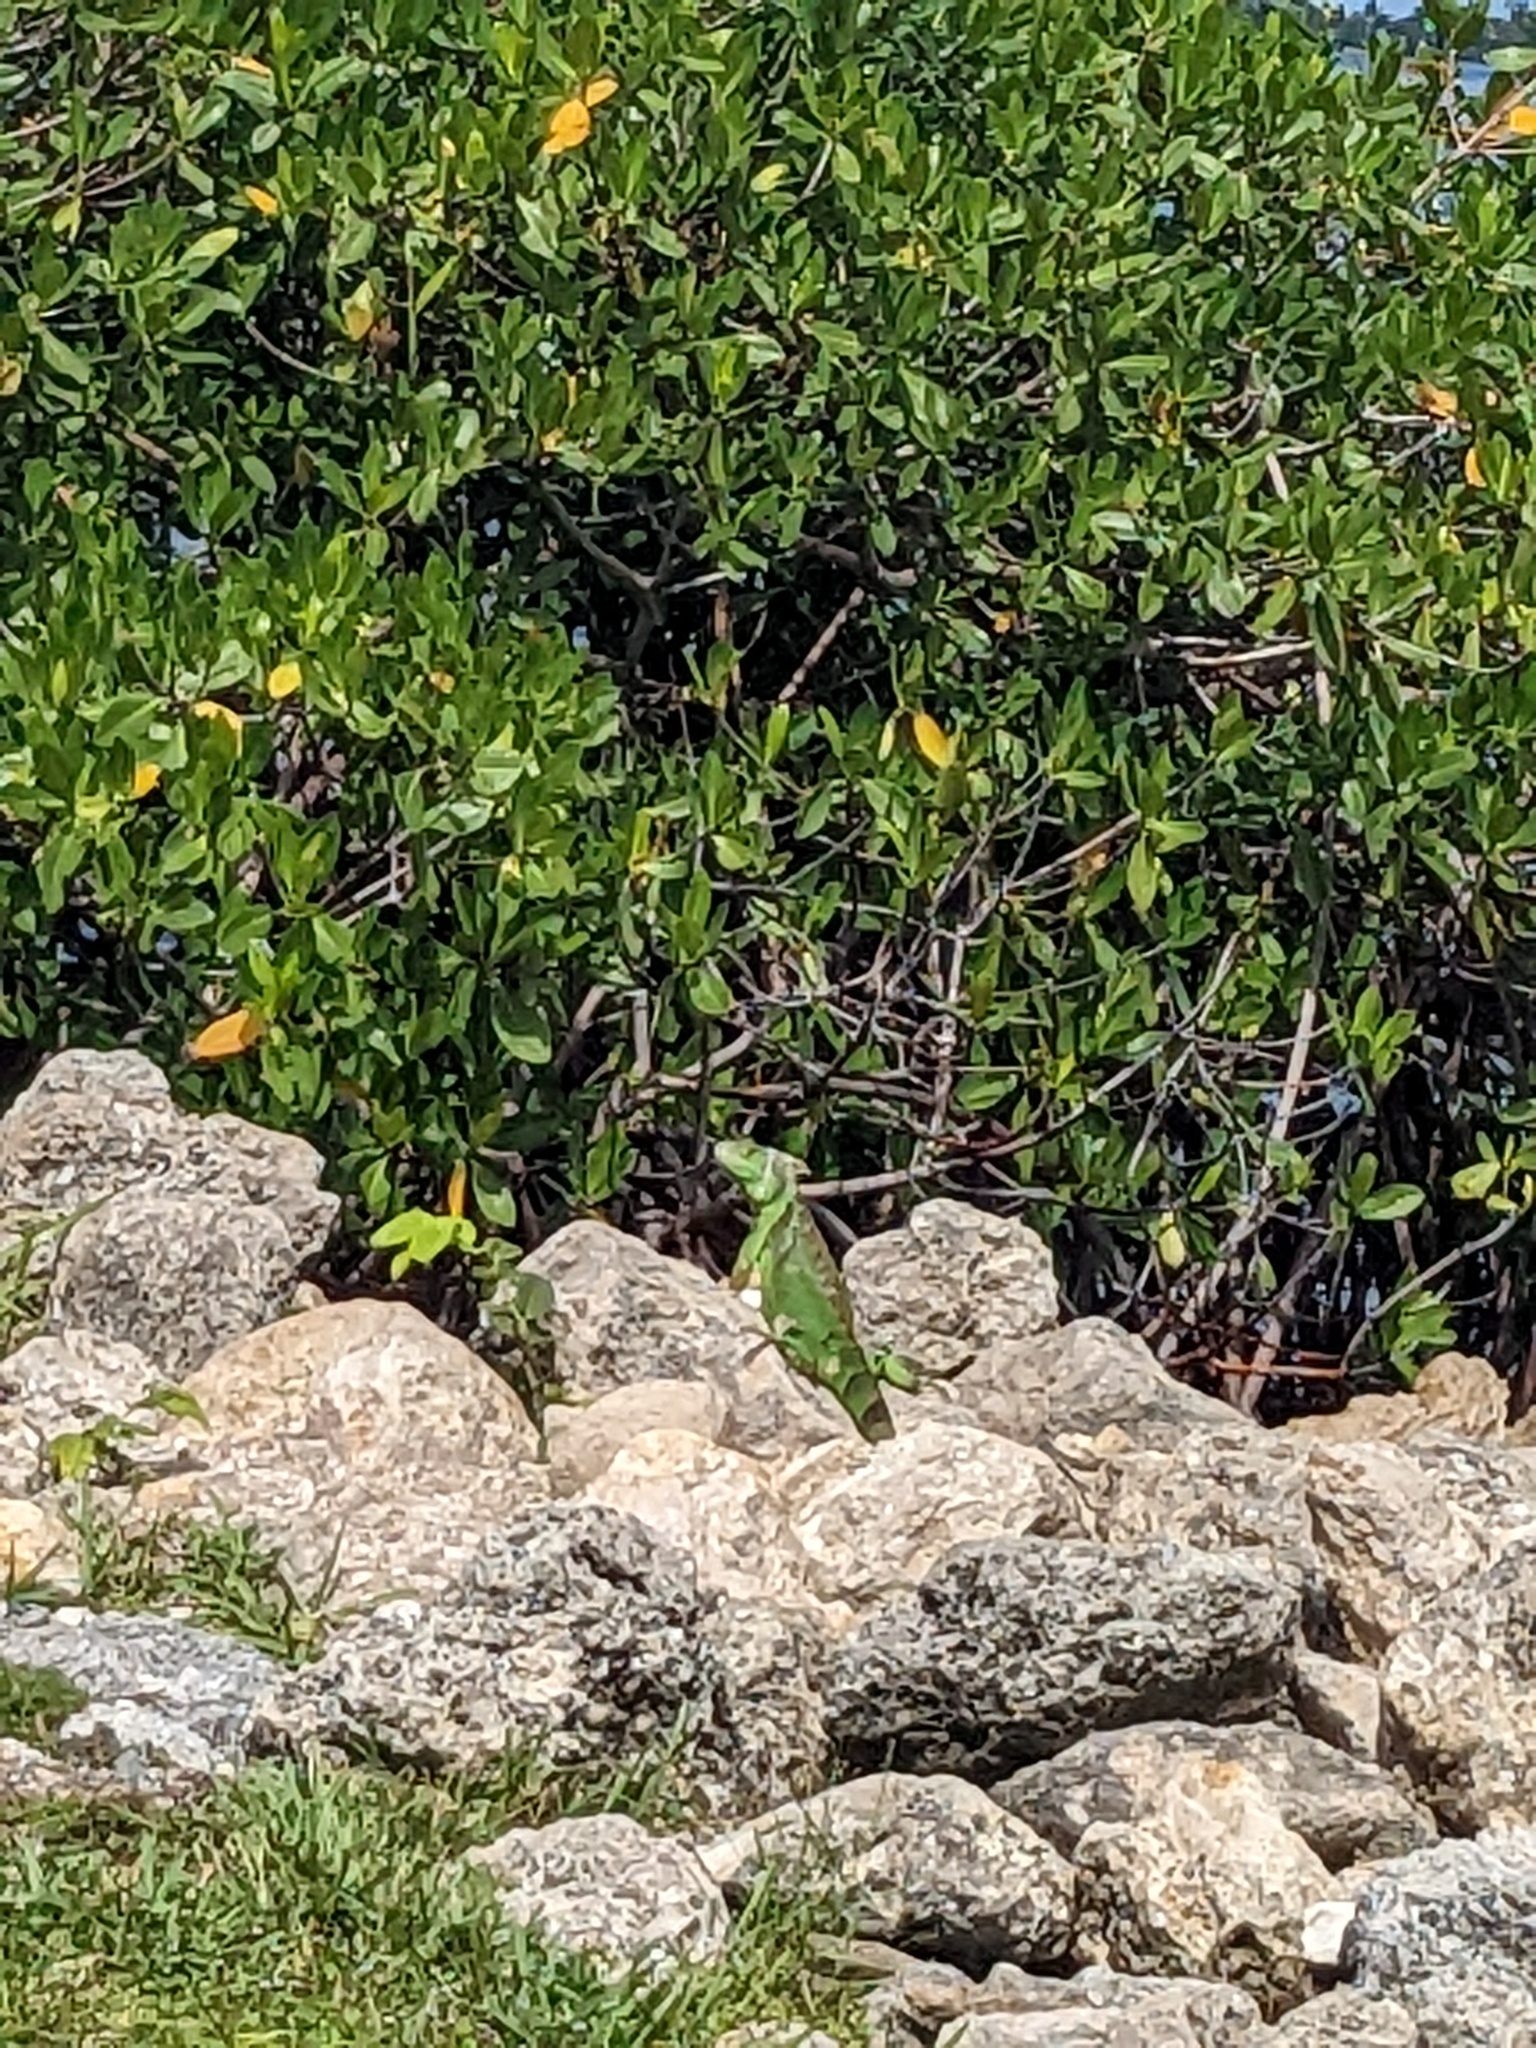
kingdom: Animalia
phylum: Chordata
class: Squamata
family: Iguanidae
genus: Iguana
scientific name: Iguana iguana
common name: Green iguana
